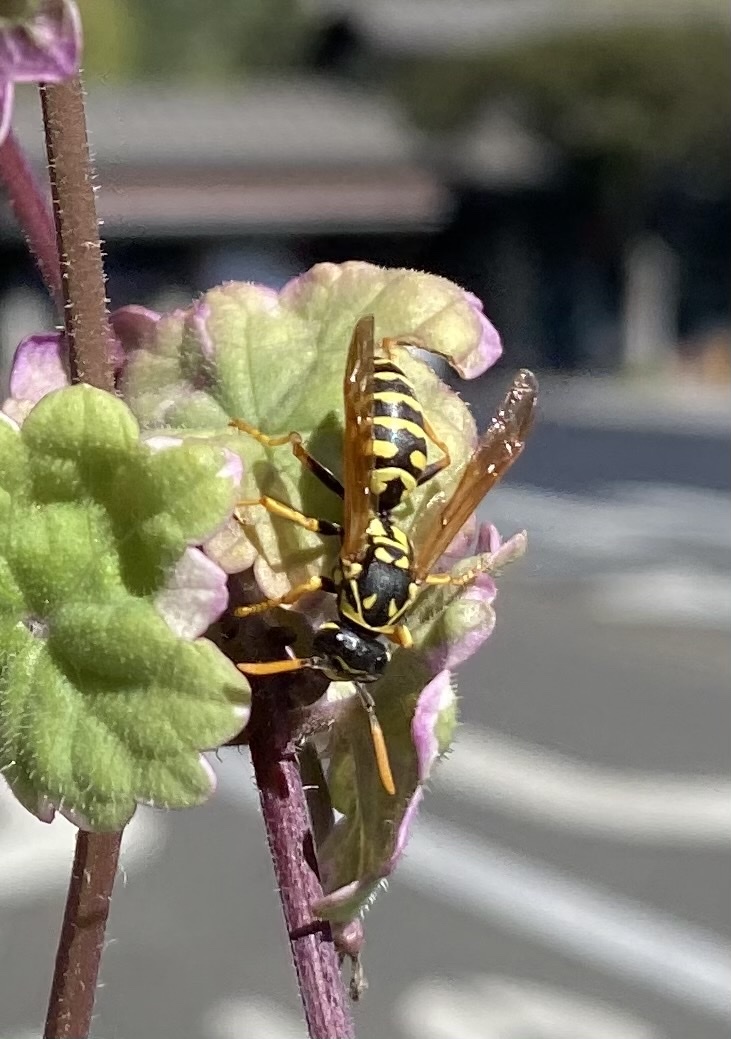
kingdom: Animalia
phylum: Arthropoda
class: Insecta
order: Hymenoptera
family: Eumenidae
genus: Polistes
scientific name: Polistes dominula
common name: Paper wasp
